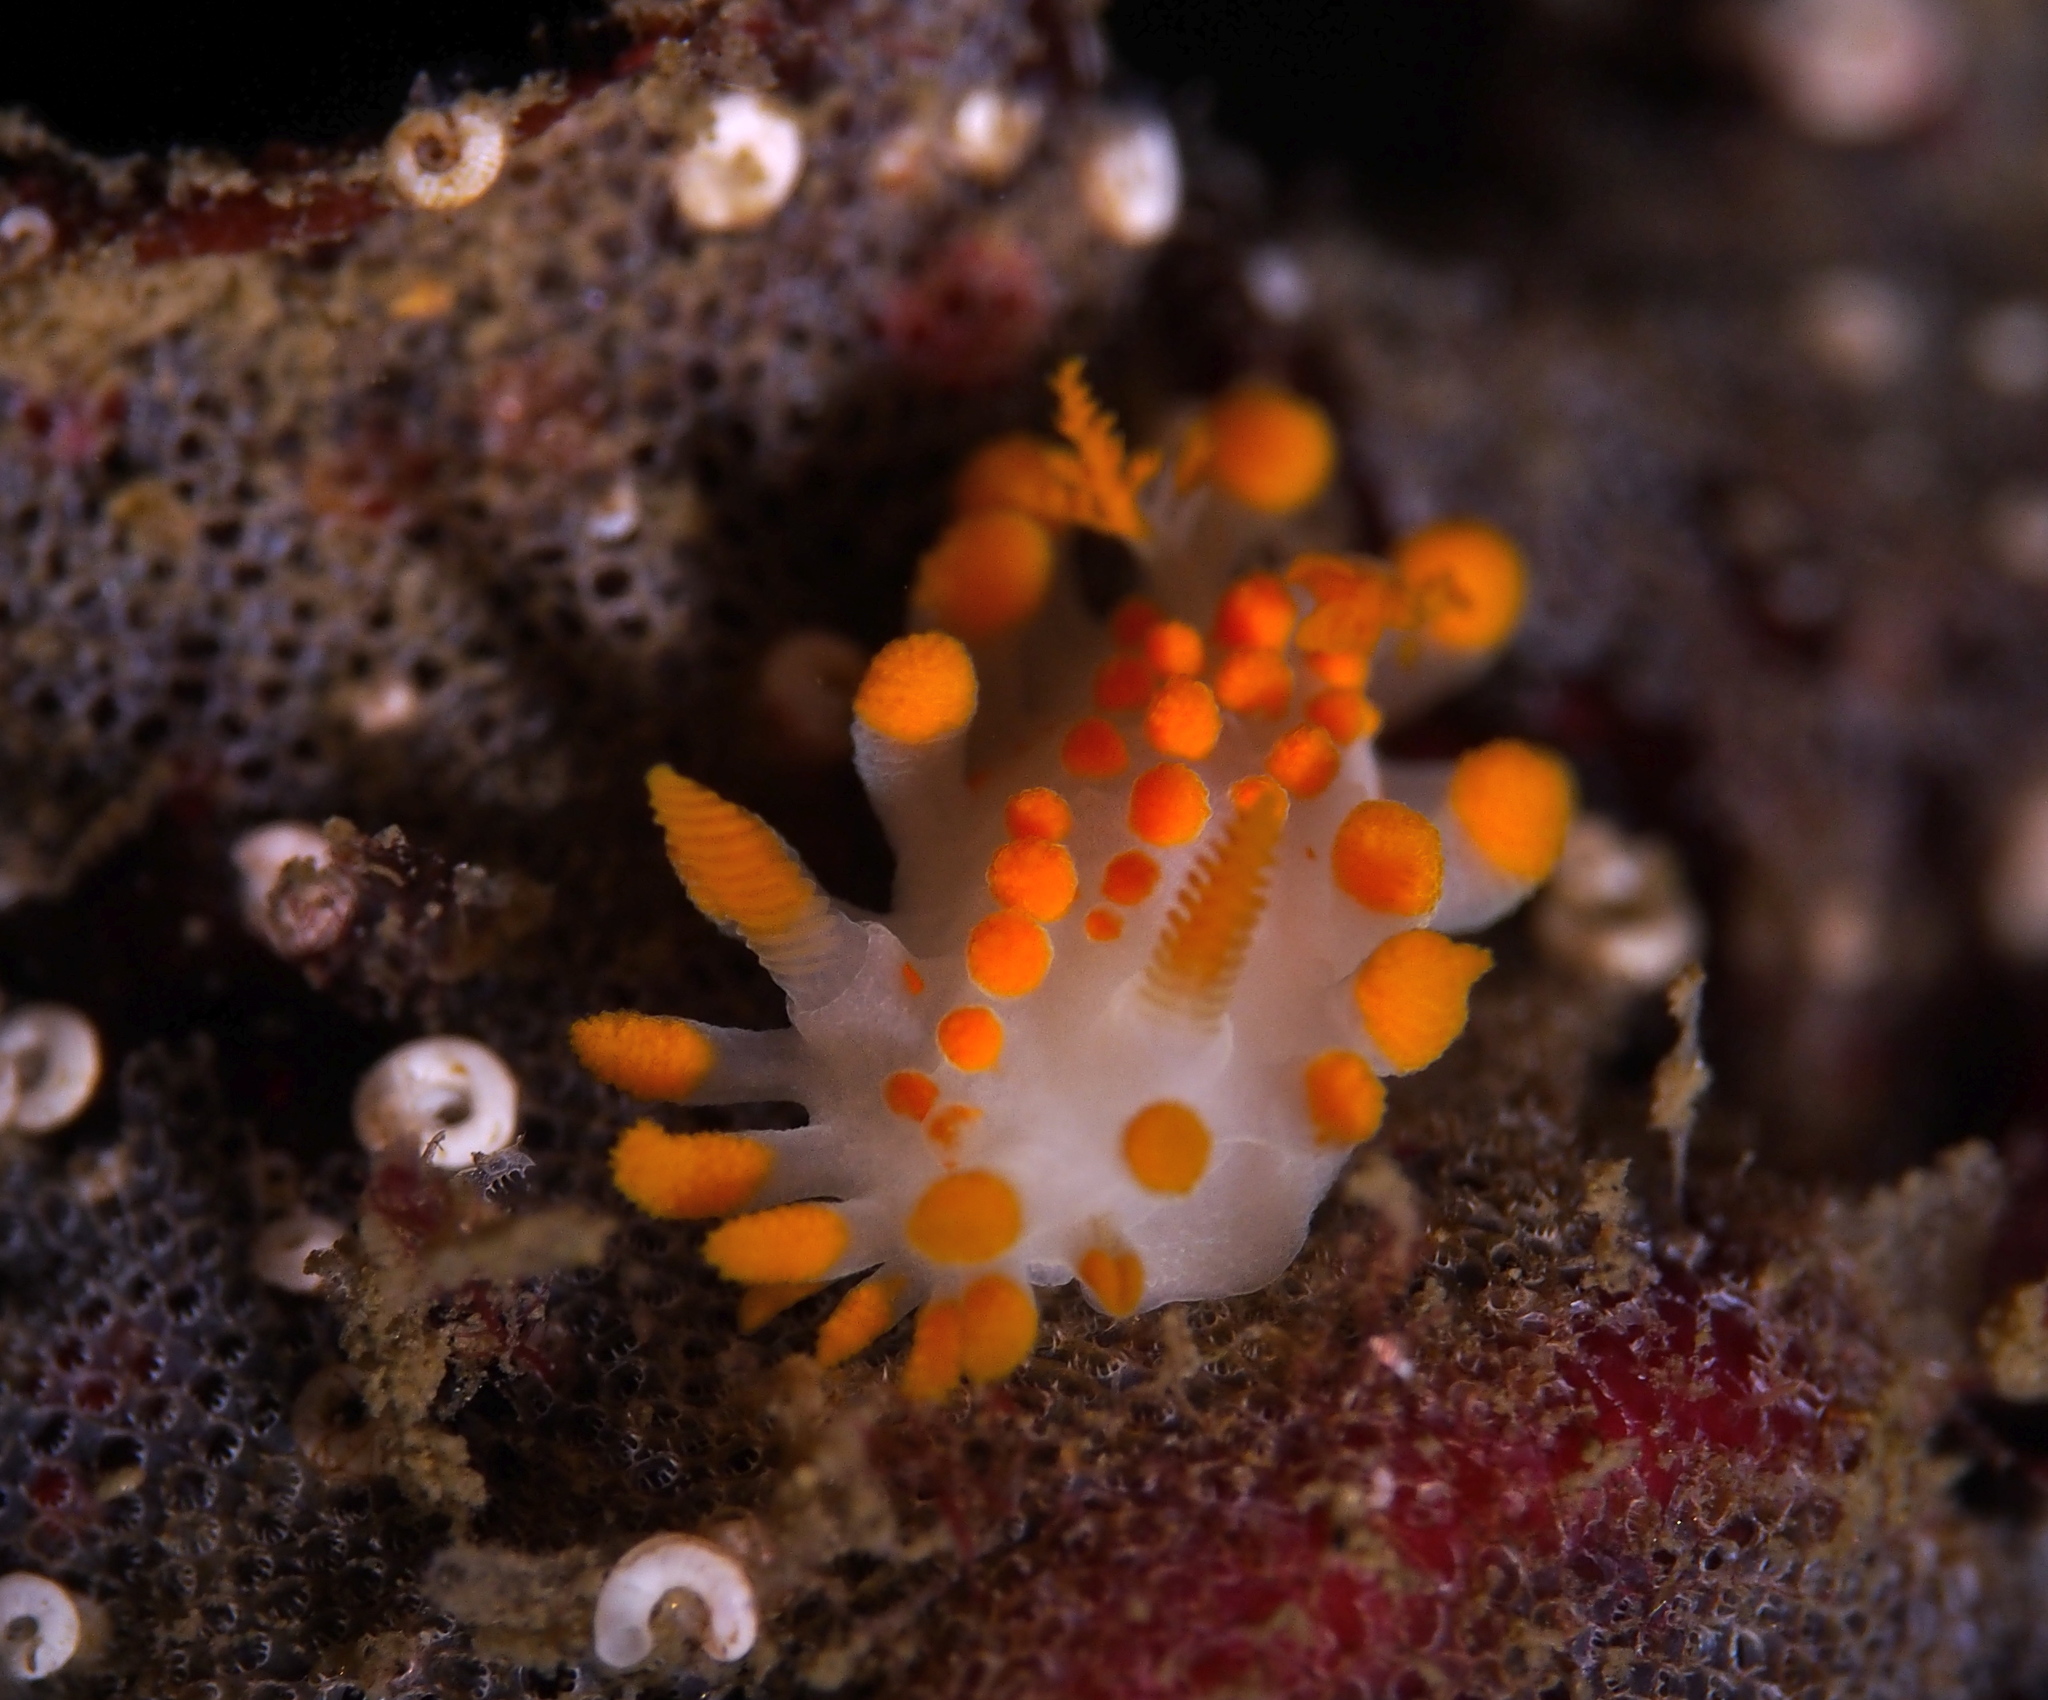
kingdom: Animalia
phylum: Mollusca
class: Gastropoda
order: Nudibranchia
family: Polyceridae
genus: Limacia
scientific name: Limacia clavigera
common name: Orange-clubbed sea slug
